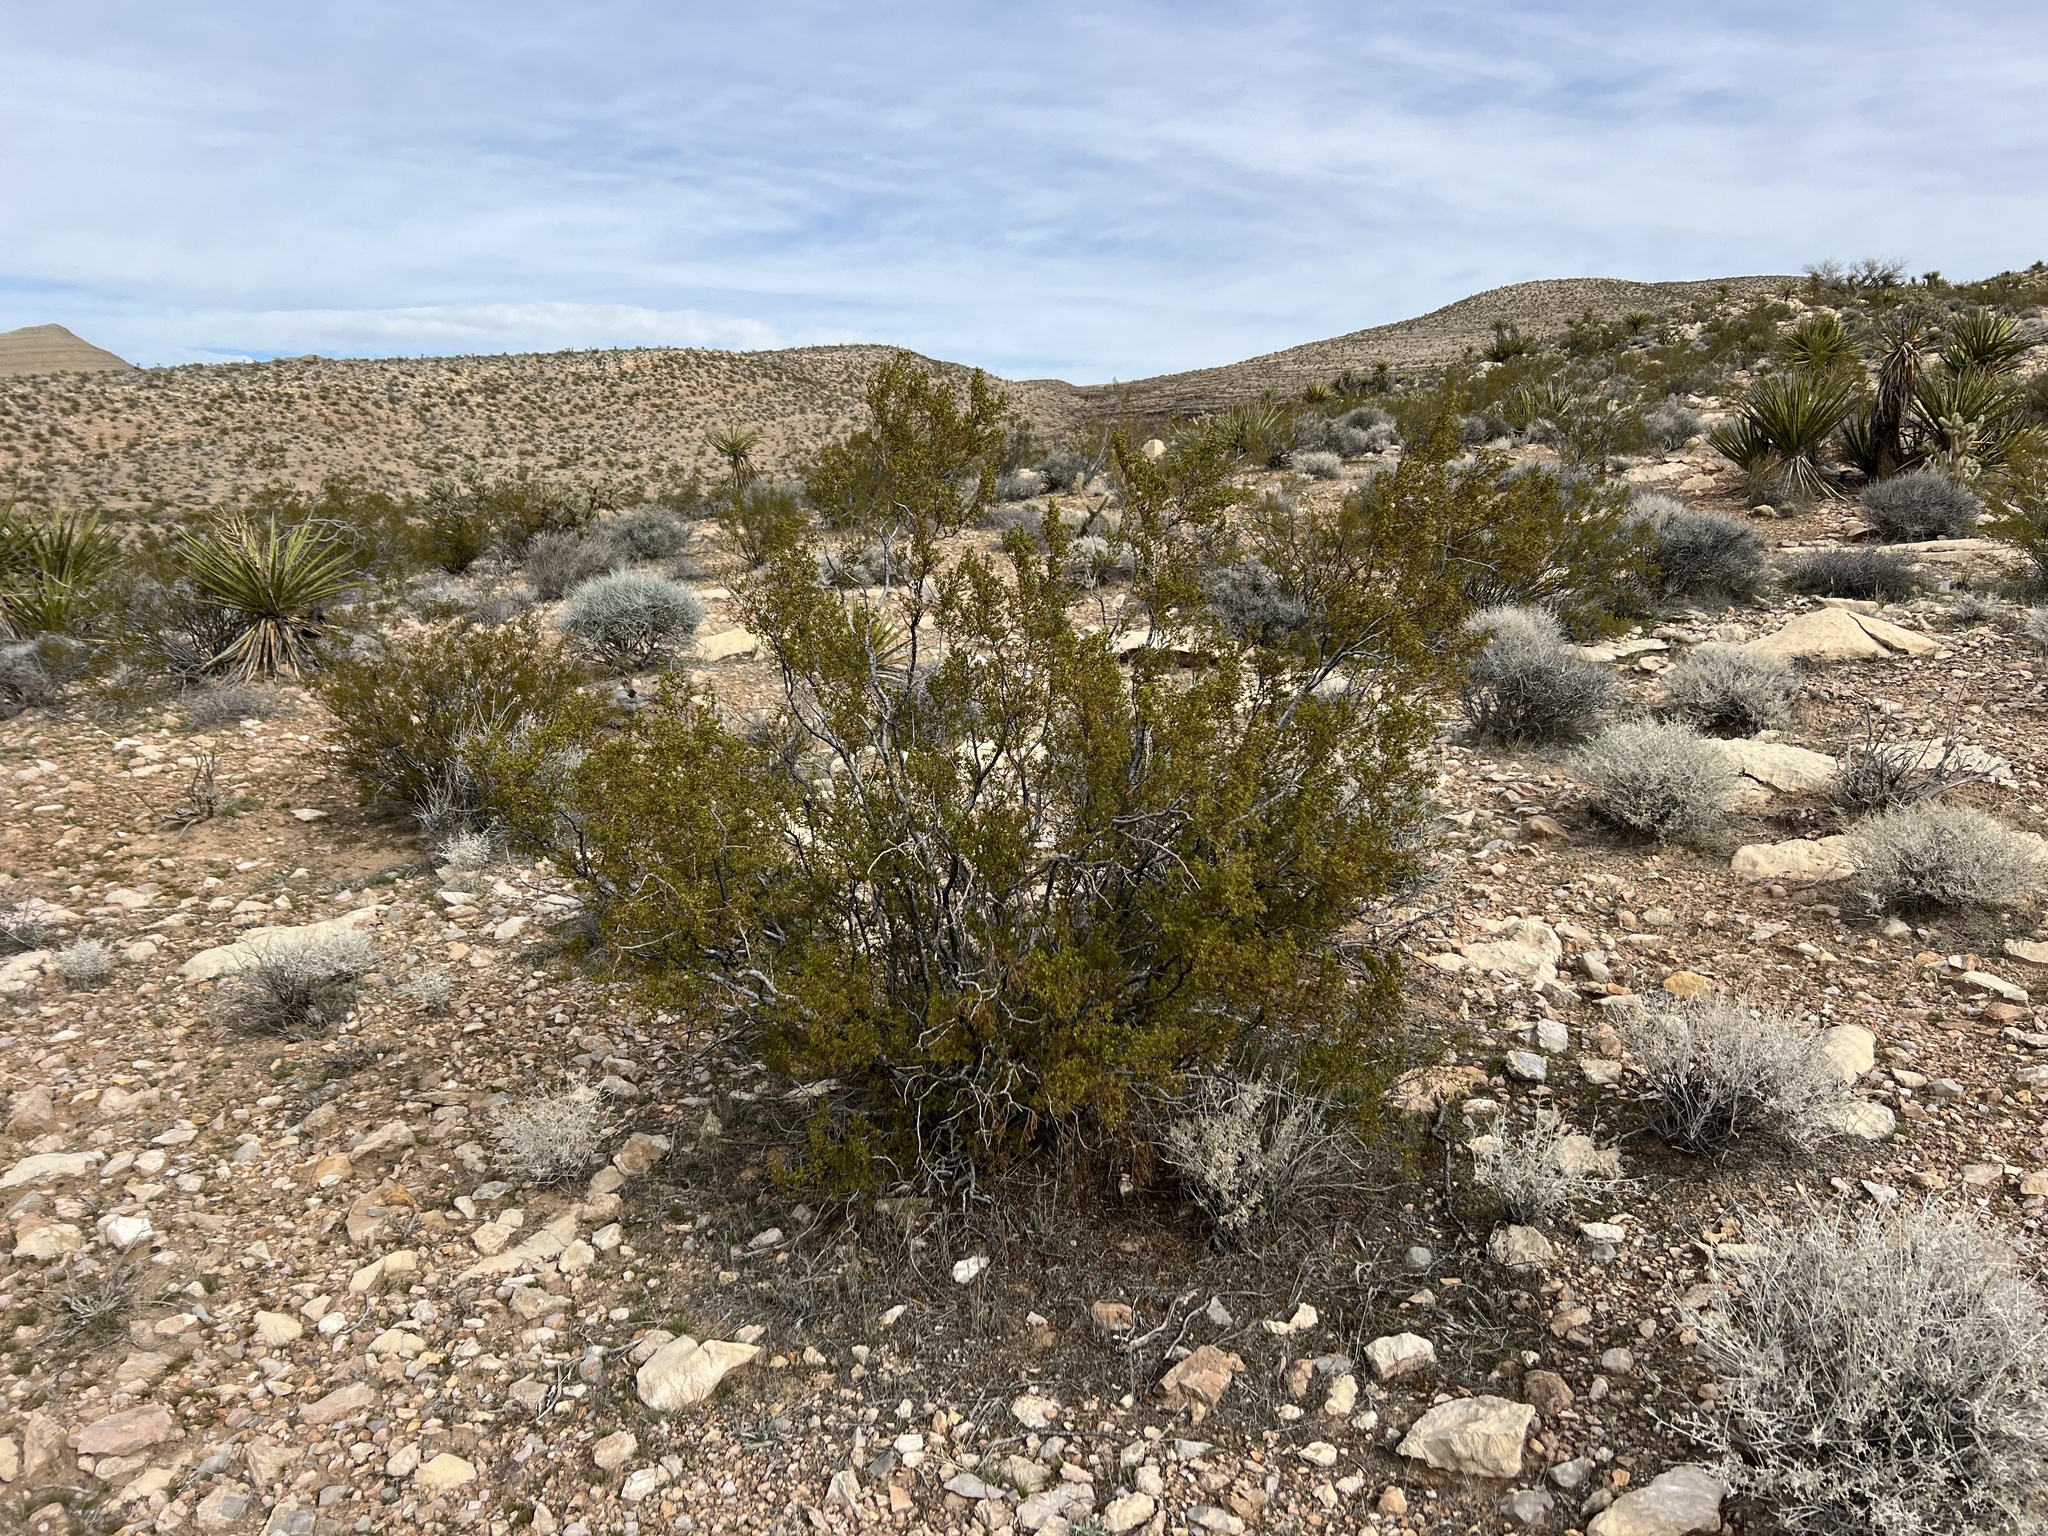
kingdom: Plantae
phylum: Tracheophyta
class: Magnoliopsida
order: Zygophyllales
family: Zygophyllaceae
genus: Larrea
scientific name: Larrea tridentata
